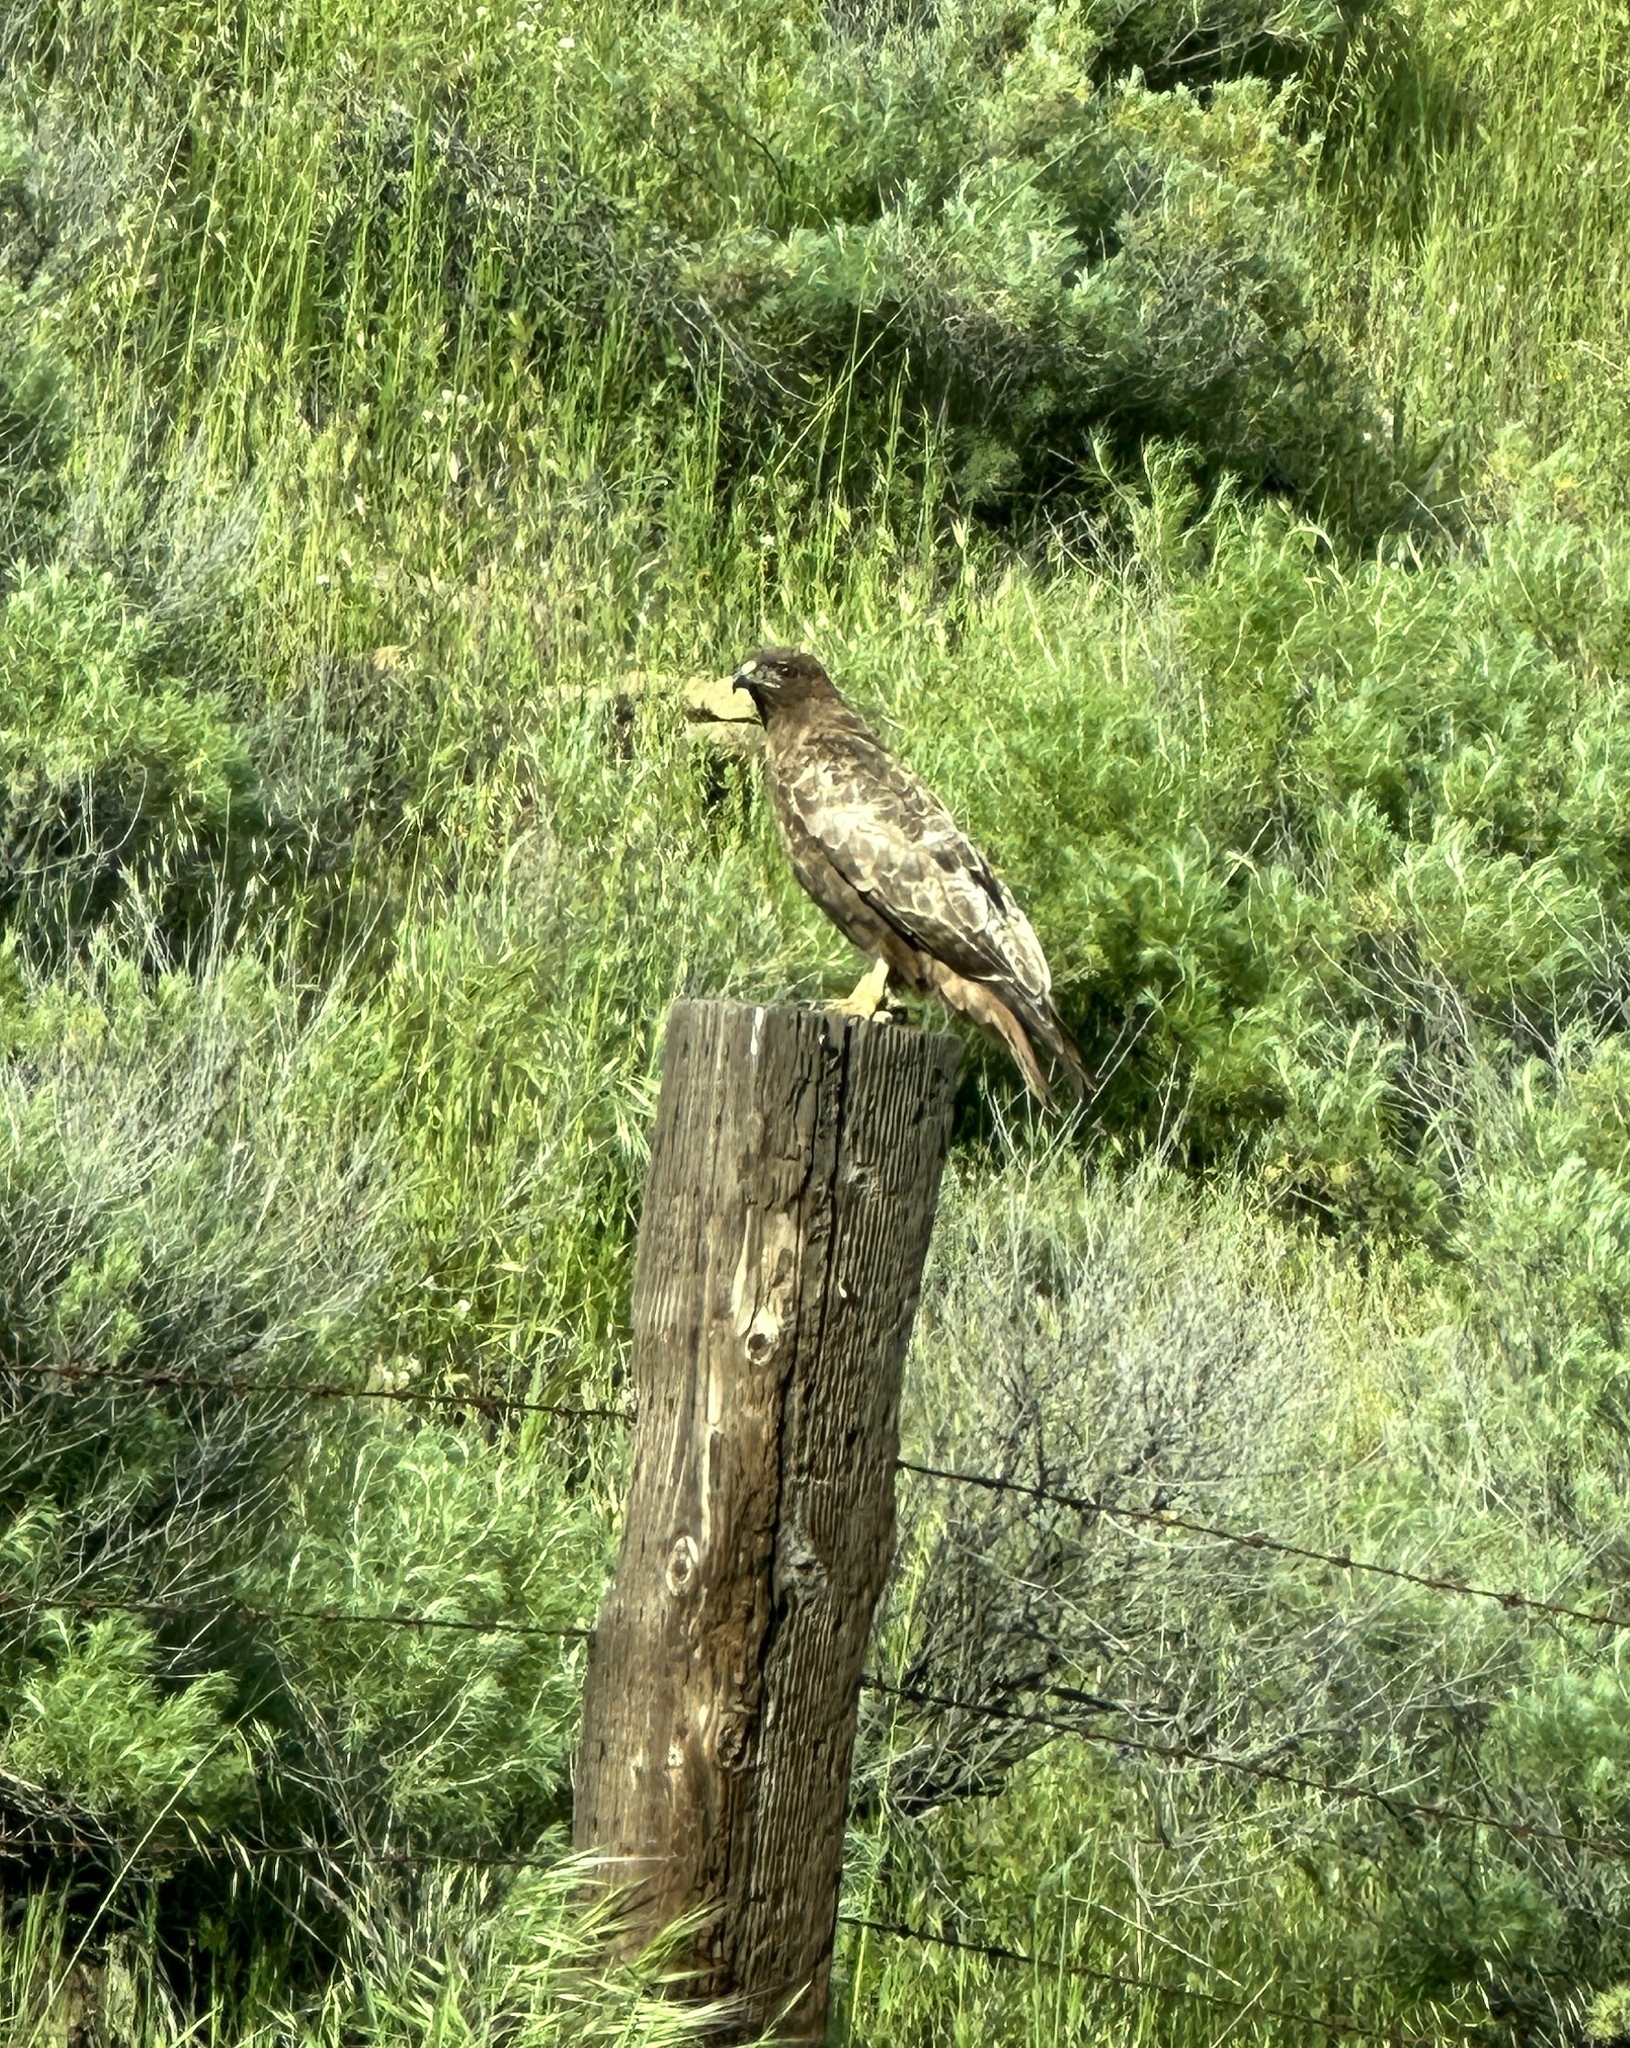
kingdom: Animalia
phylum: Chordata
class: Aves
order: Accipitriformes
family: Accipitridae
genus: Buteo
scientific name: Buteo jamaicensis
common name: Red-tailed hawk
